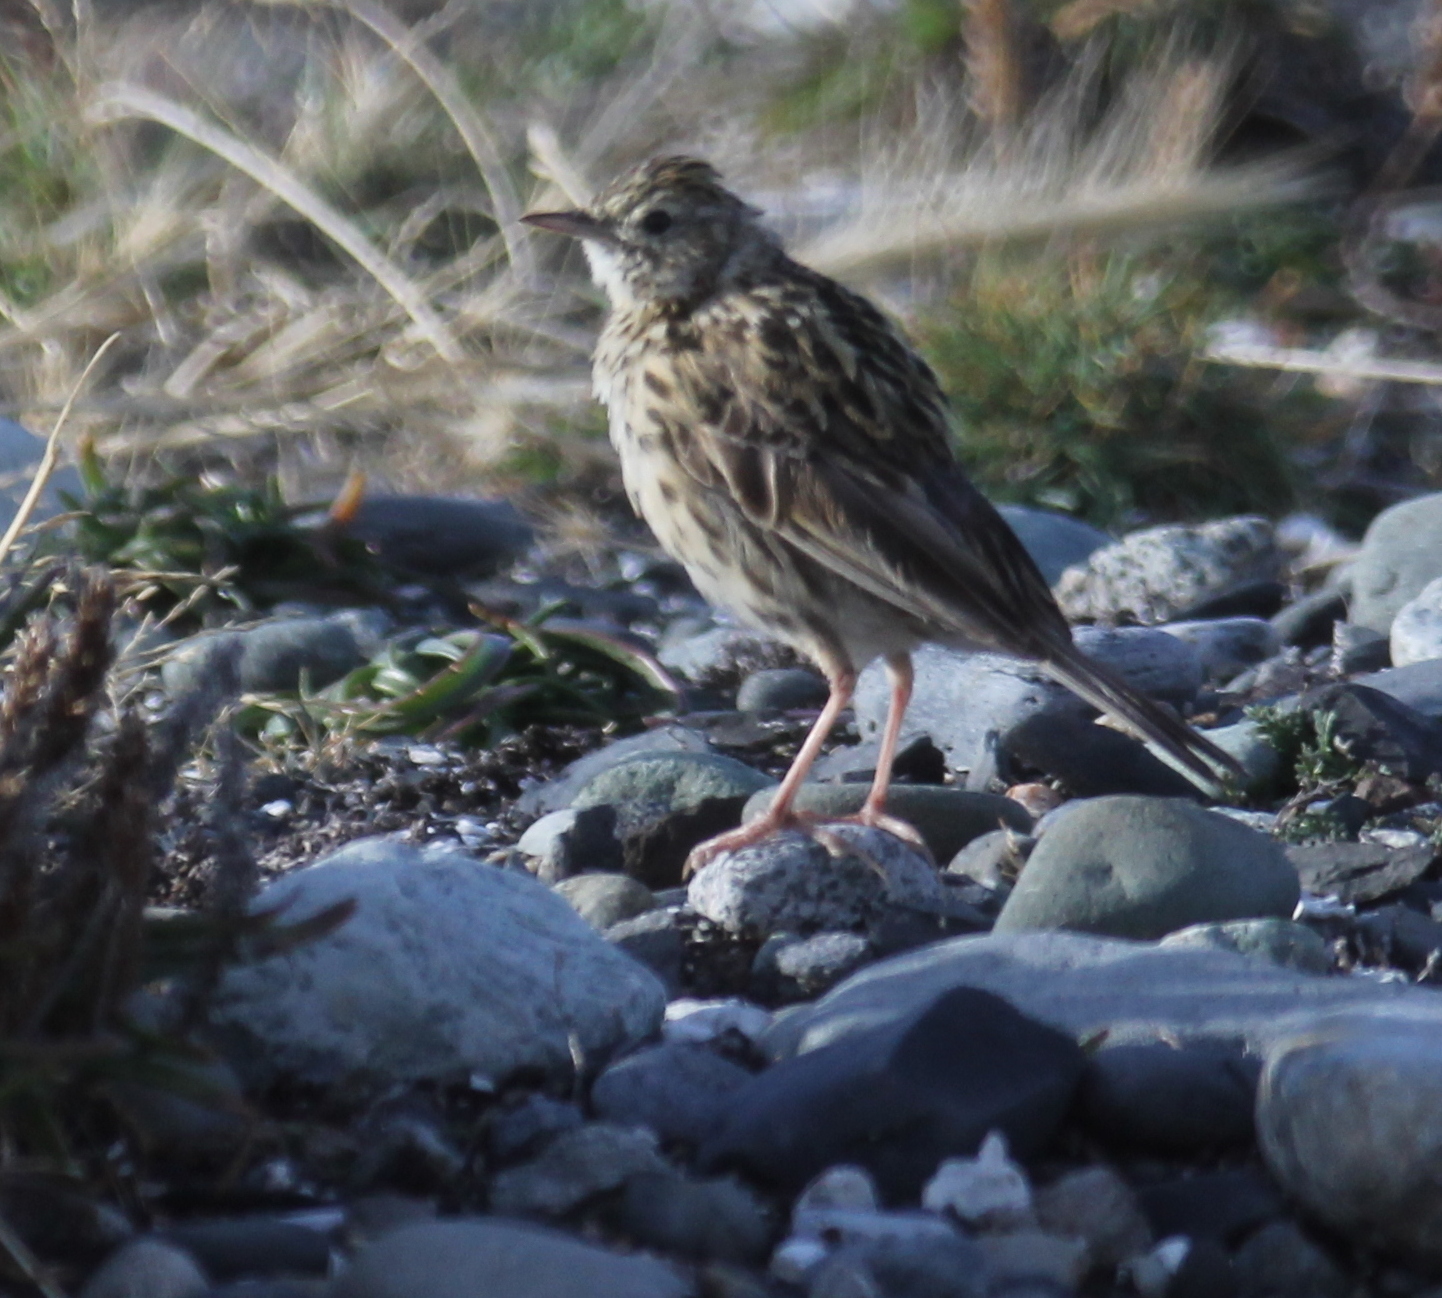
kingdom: Animalia
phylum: Chordata
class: Aves
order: Passeriformes
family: Motacillidae
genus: Anthus
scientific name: Anthus correndera
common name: Correndera pipit
